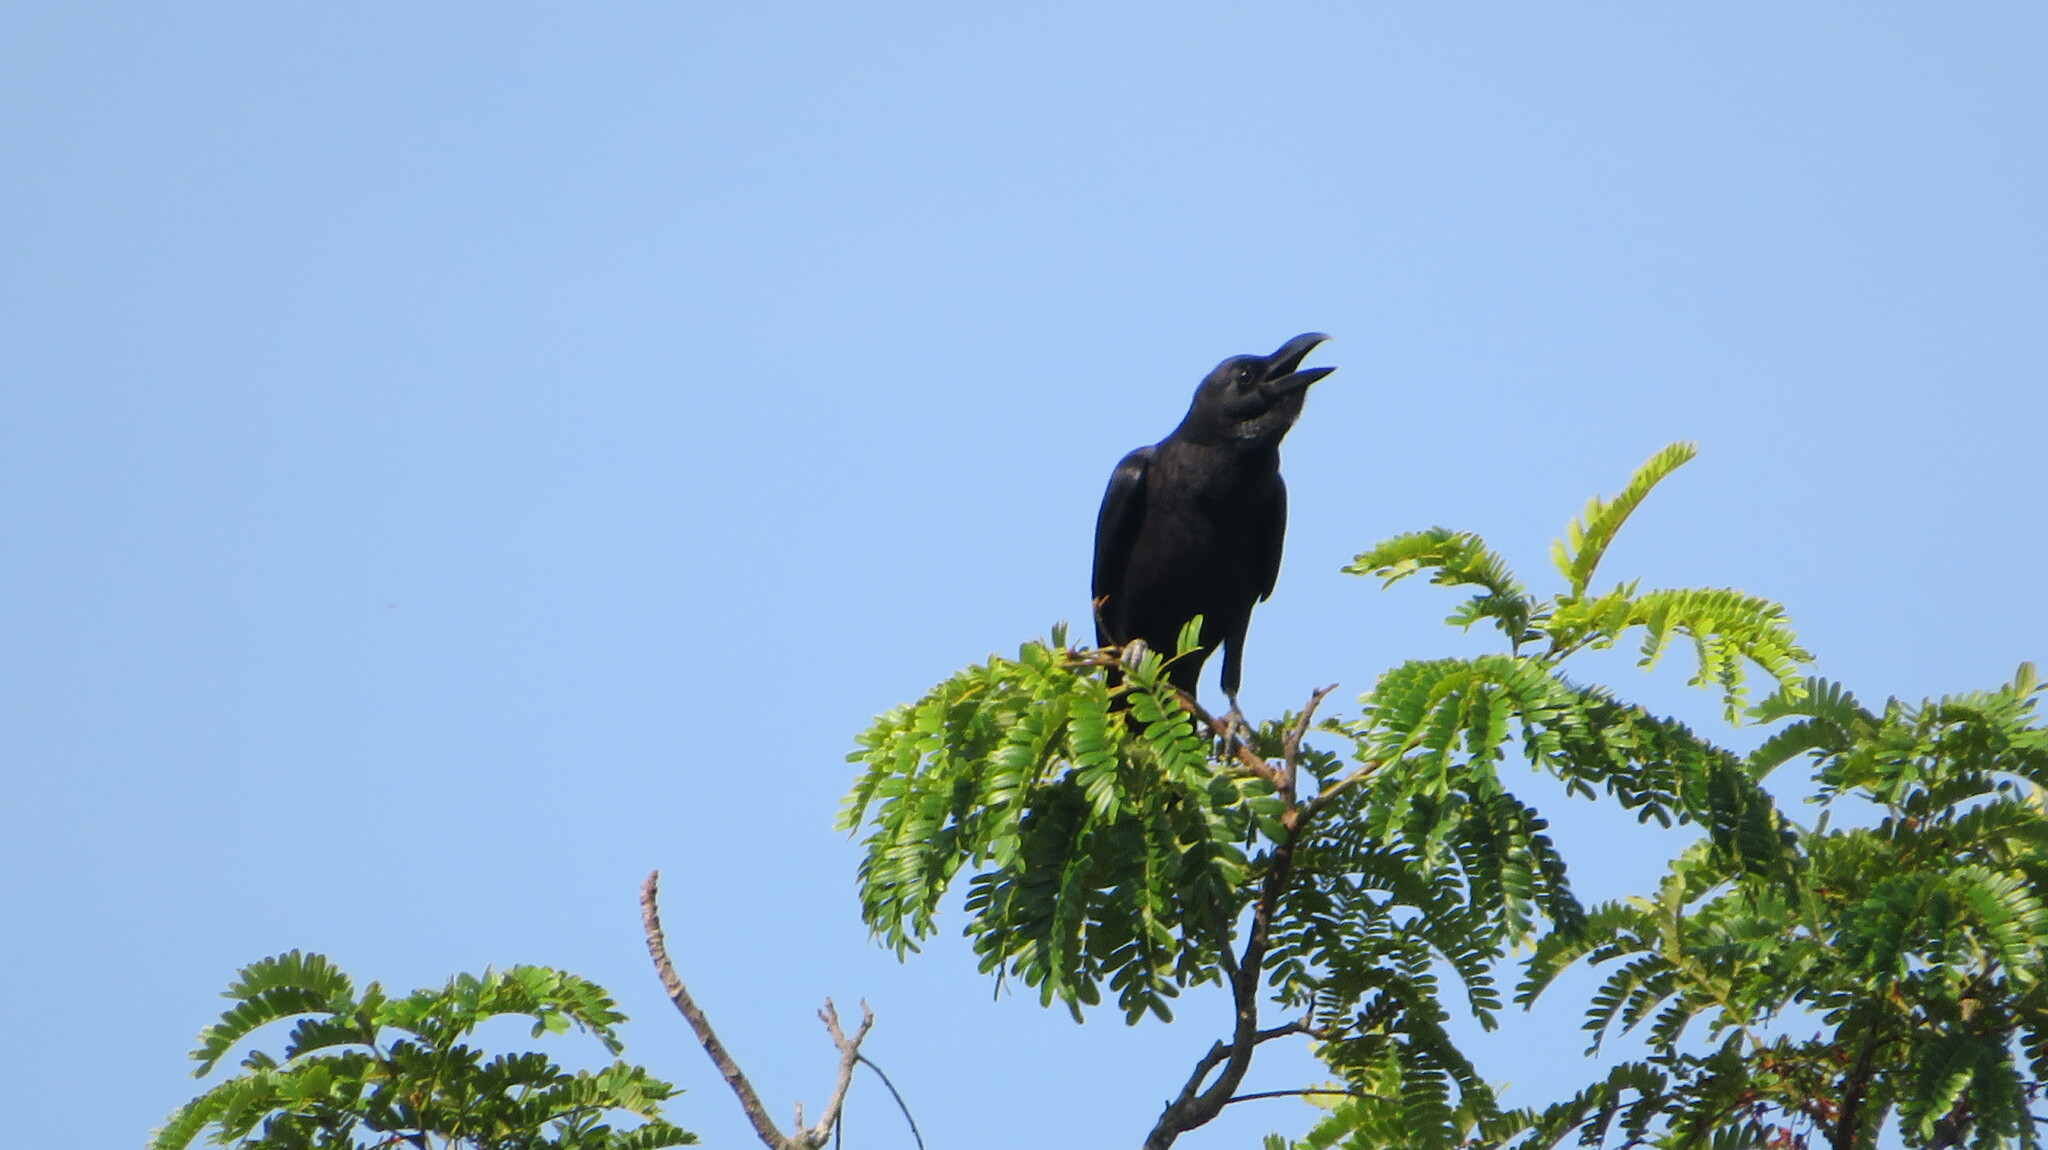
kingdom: Animalia
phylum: Chordata
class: Aves
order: Passeriformes
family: Corvidae
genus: Corvus
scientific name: Corvus macrorhynchos
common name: Large-billed crow
